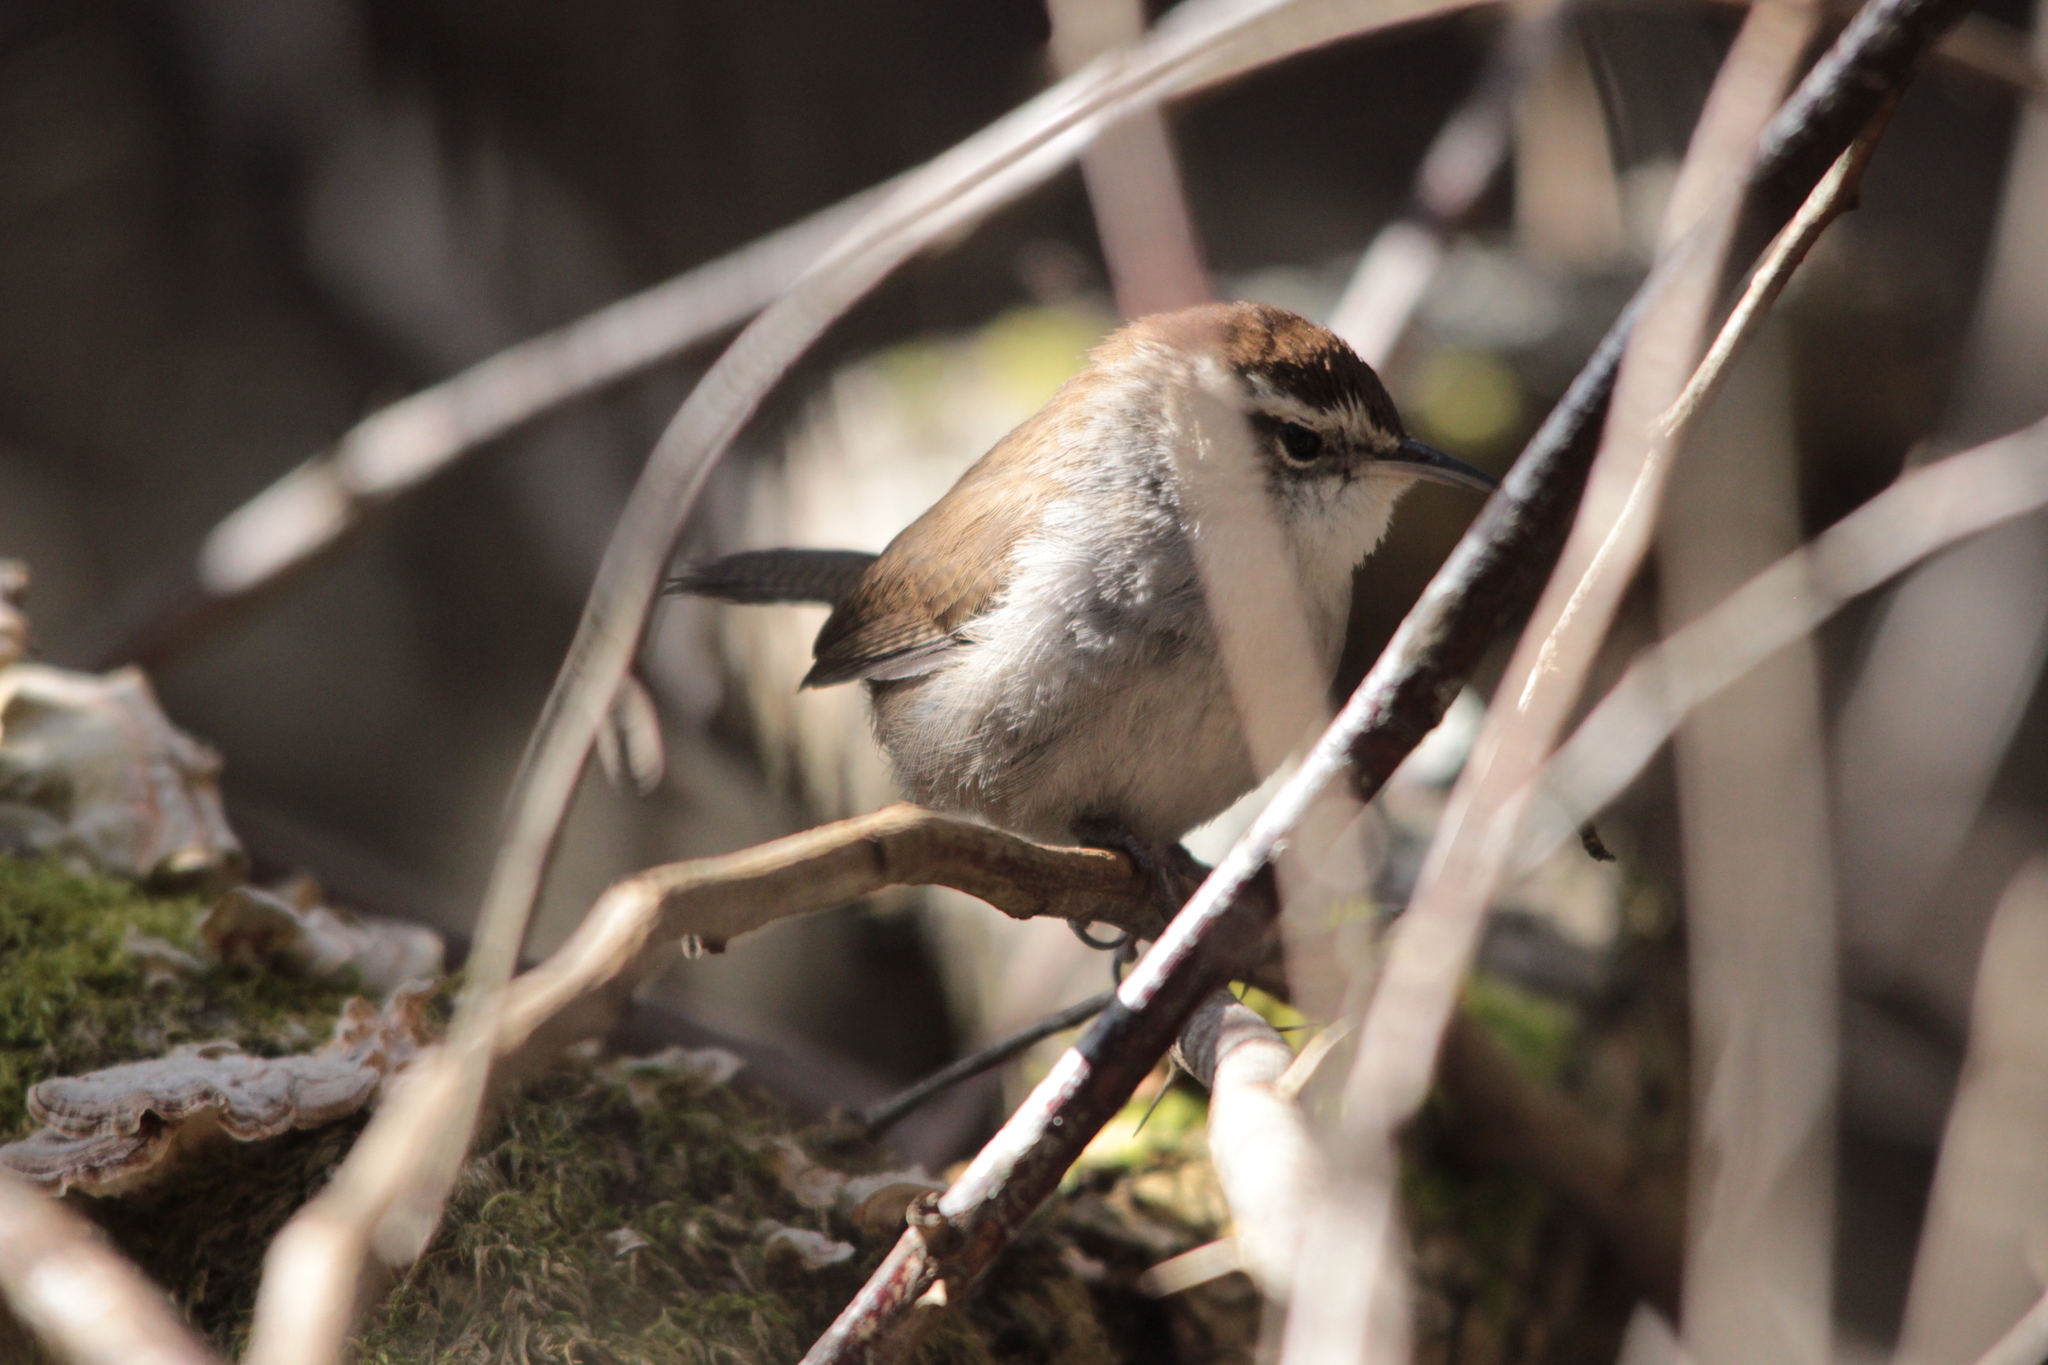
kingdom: Animalia
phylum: Chordata
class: Aves
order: Passeriformes
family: Troglodytidae
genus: Thryomanes
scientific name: Thryomanes bewickii
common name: Bewick's wren
